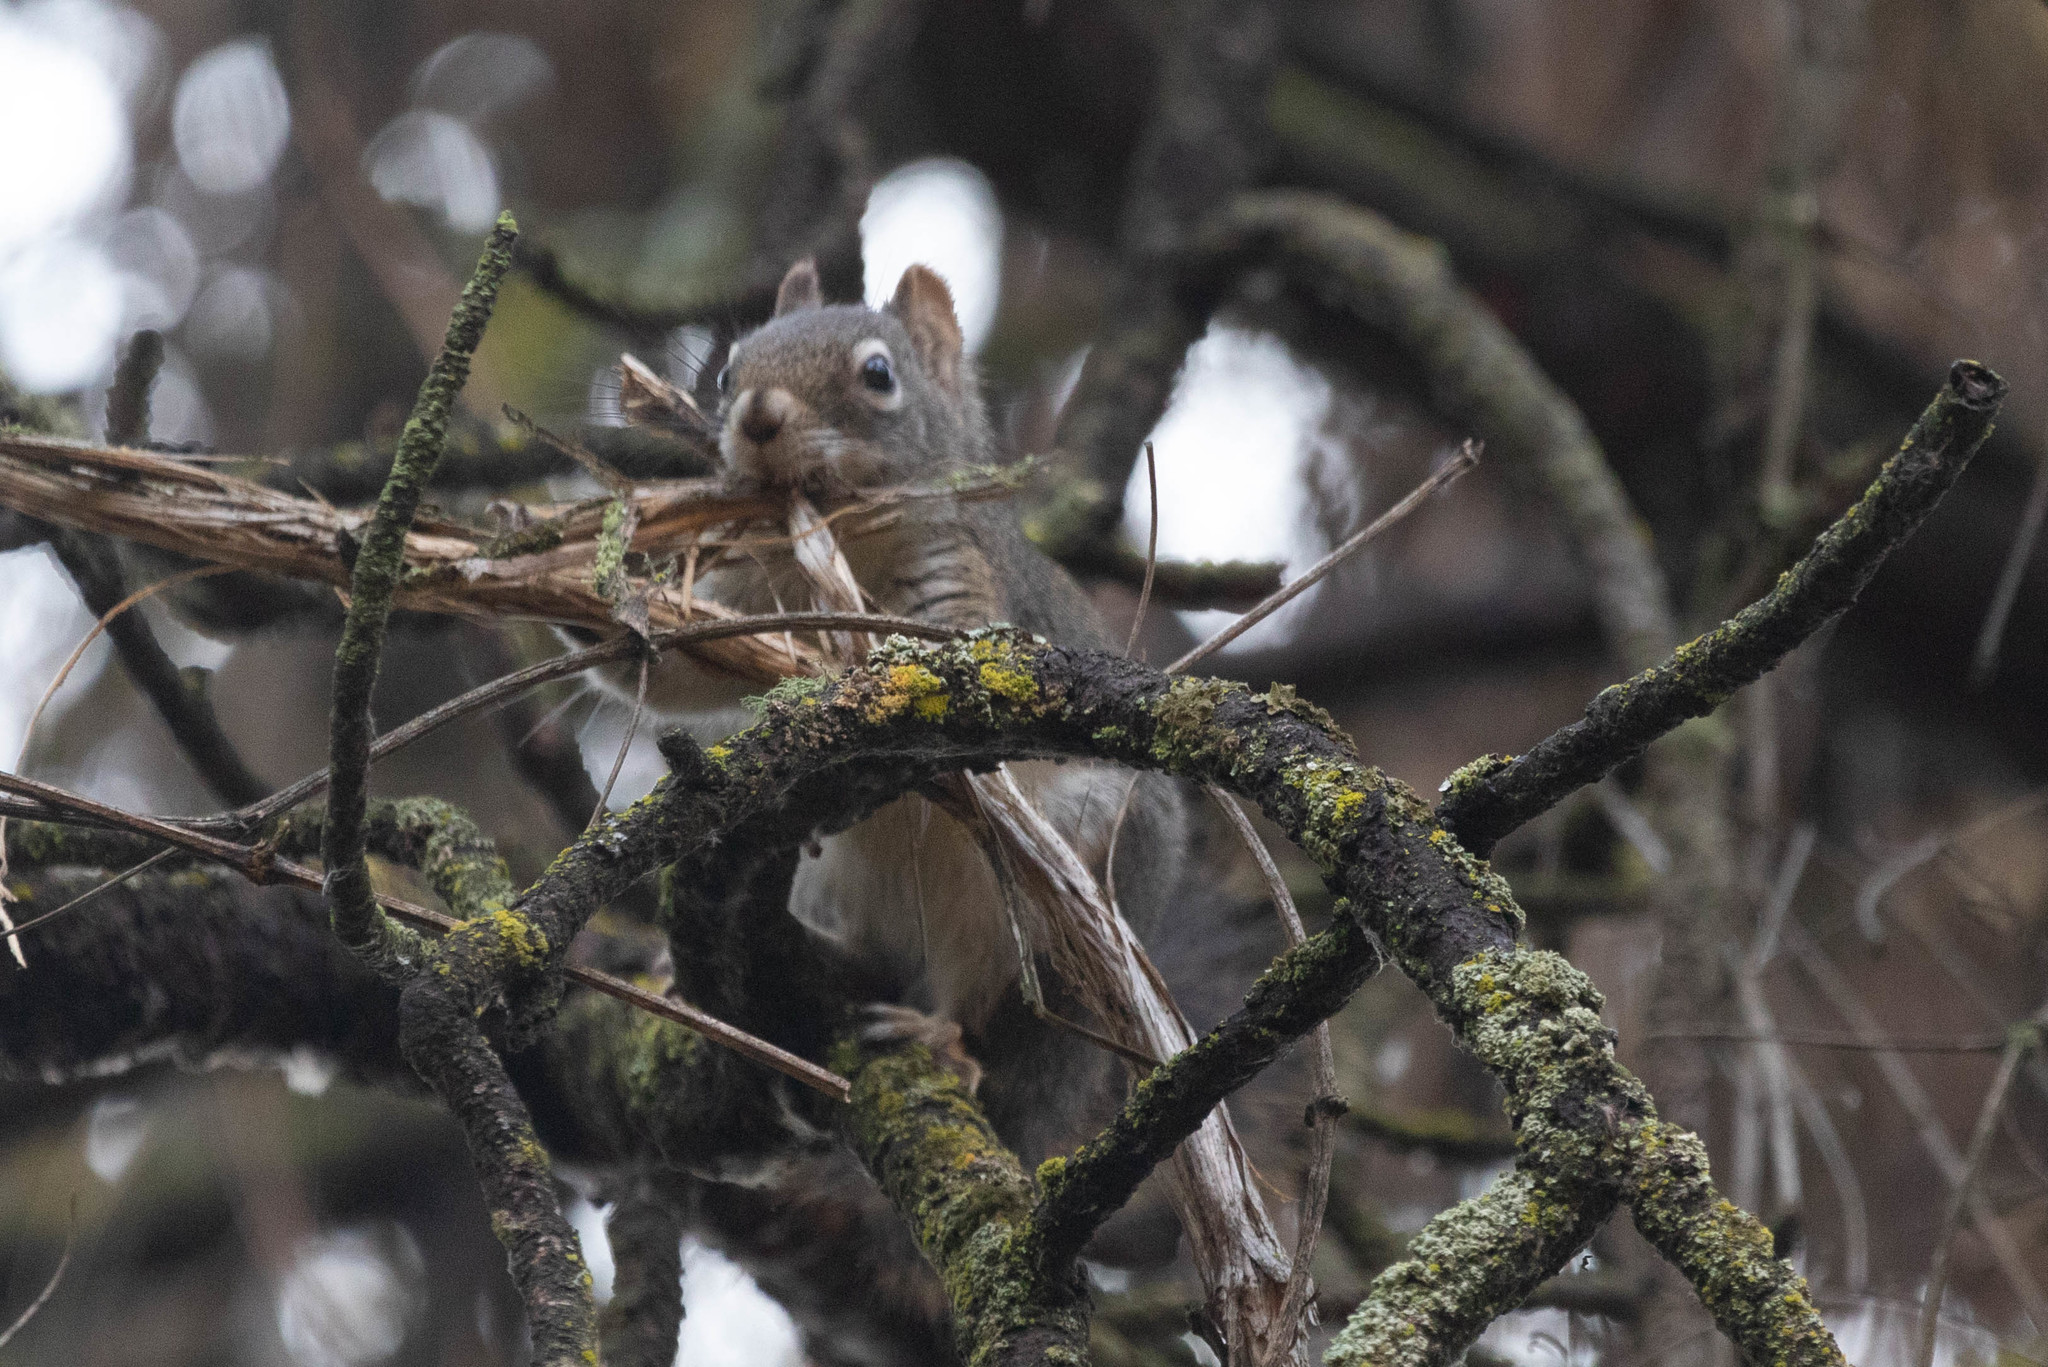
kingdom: Animalia
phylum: Chordata
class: Mammalia
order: Rodentia
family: Sciuridae
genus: Tamiasciurus
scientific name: Tamiasciurus hudsonicus
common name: Red squirrel
